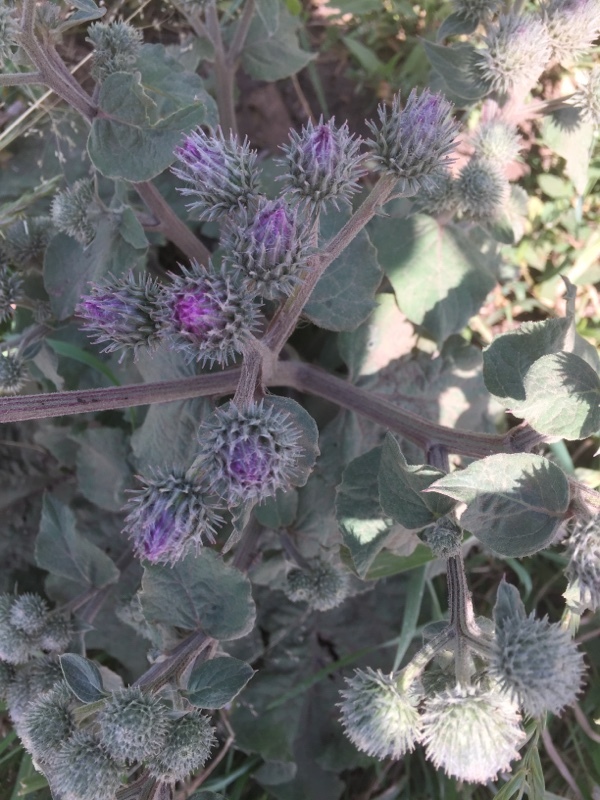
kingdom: Plantae
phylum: Tracheophyta
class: Magnoliopsida
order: Asterales
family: Asteraceae
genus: Arctium
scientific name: Arctium tomentosum
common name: Woolly burdock
